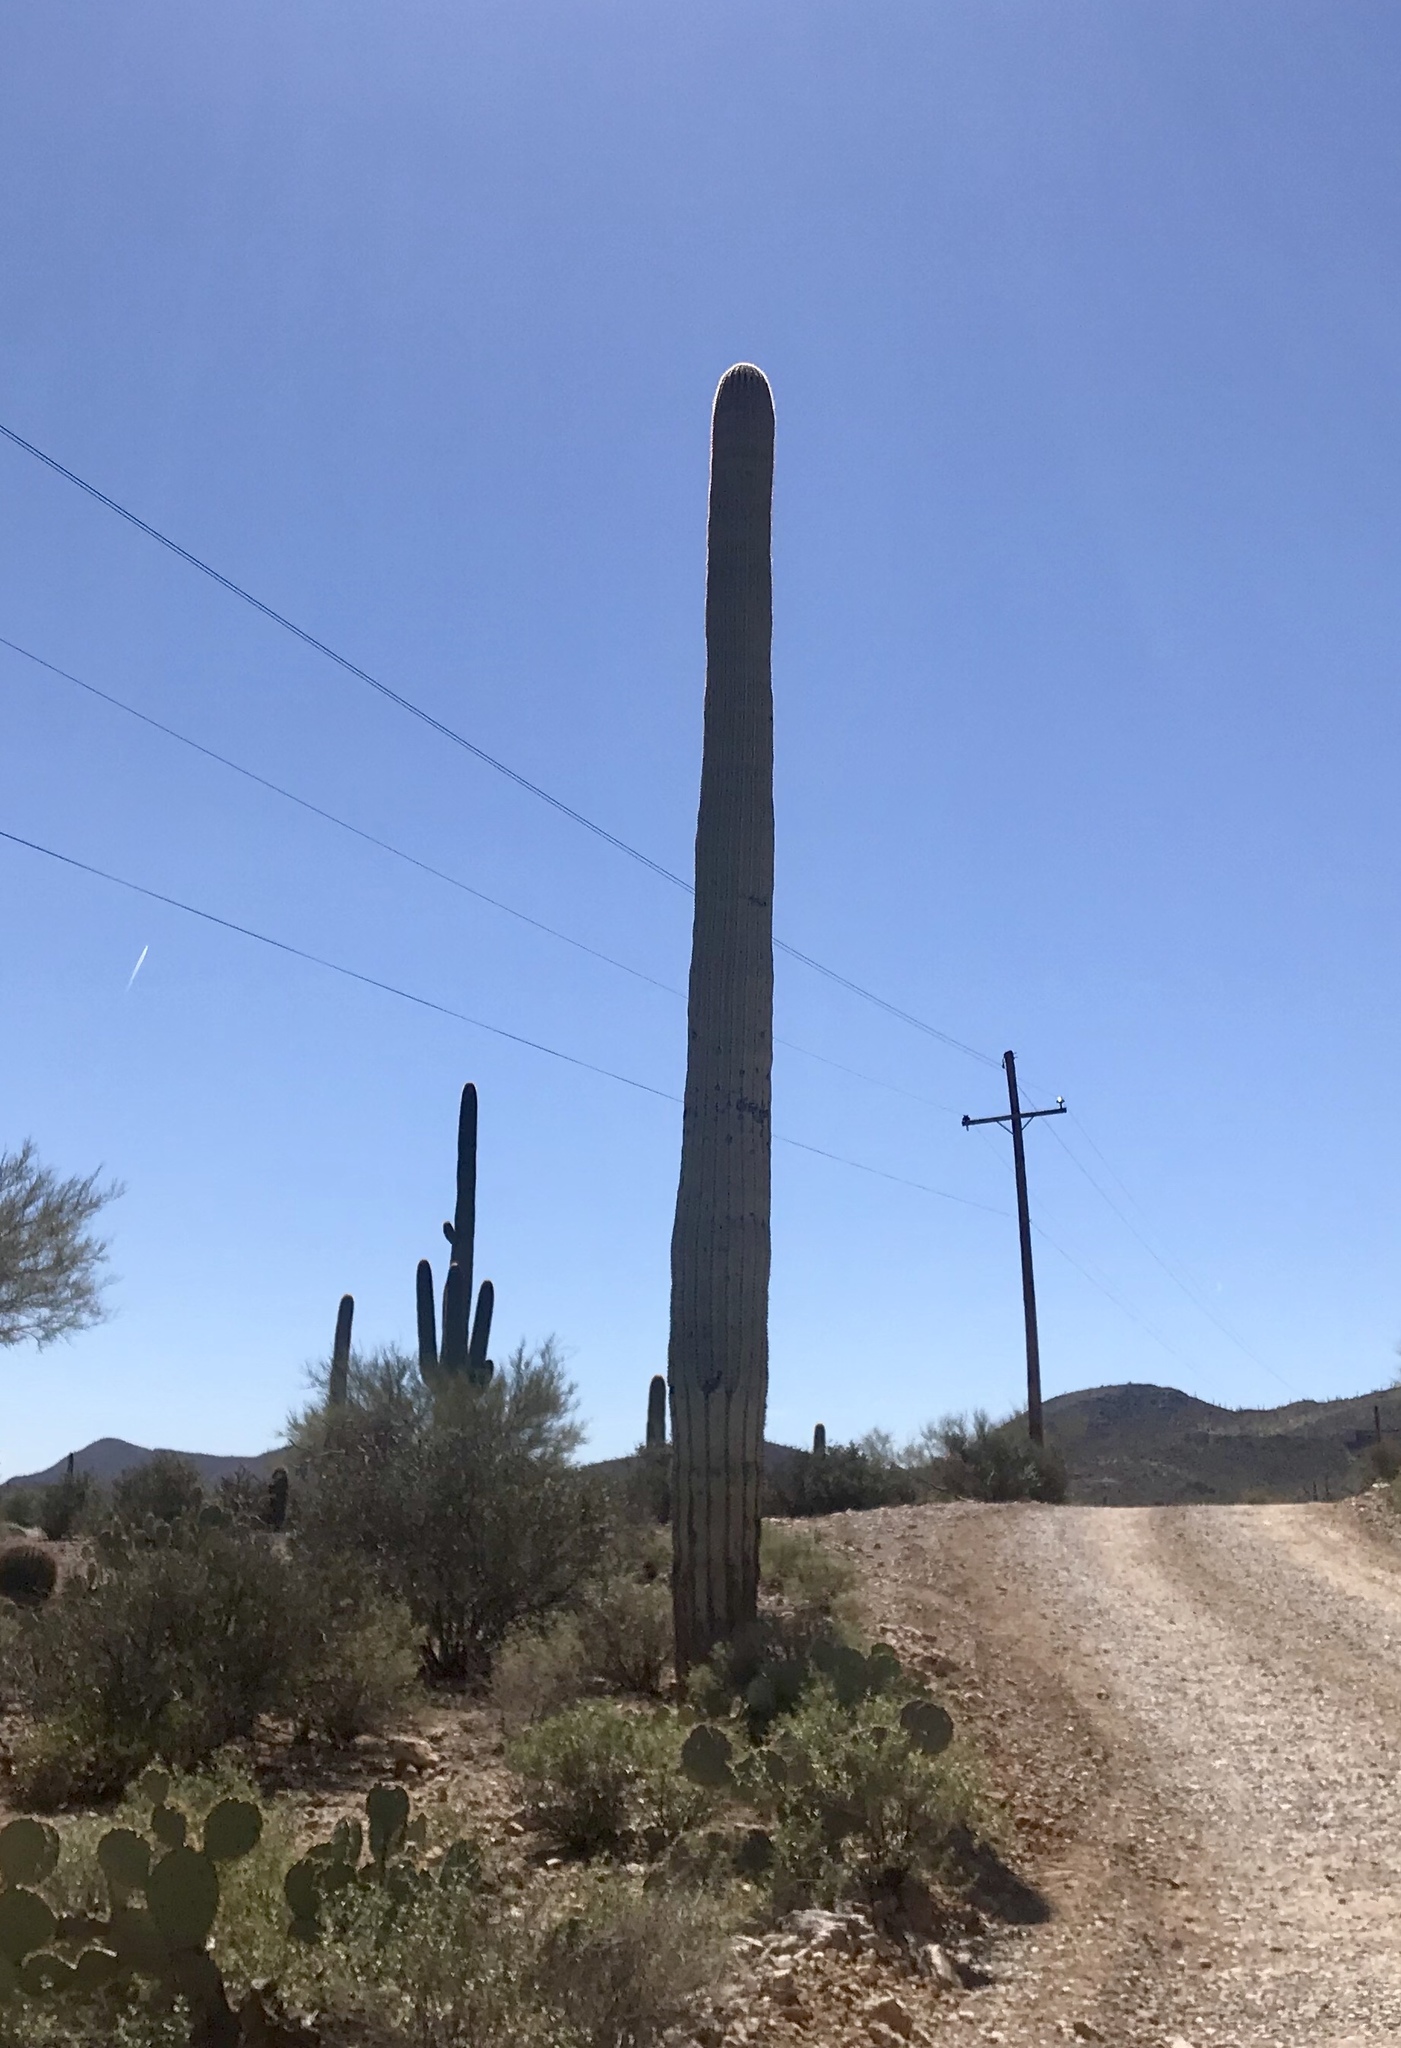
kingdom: Plantae
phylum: Tracheophyta
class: Magnoliopsida
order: Caryophyllales
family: Cactaceae
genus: Carnegiea
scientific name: Carnegiea gigantea
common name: Saguaro
